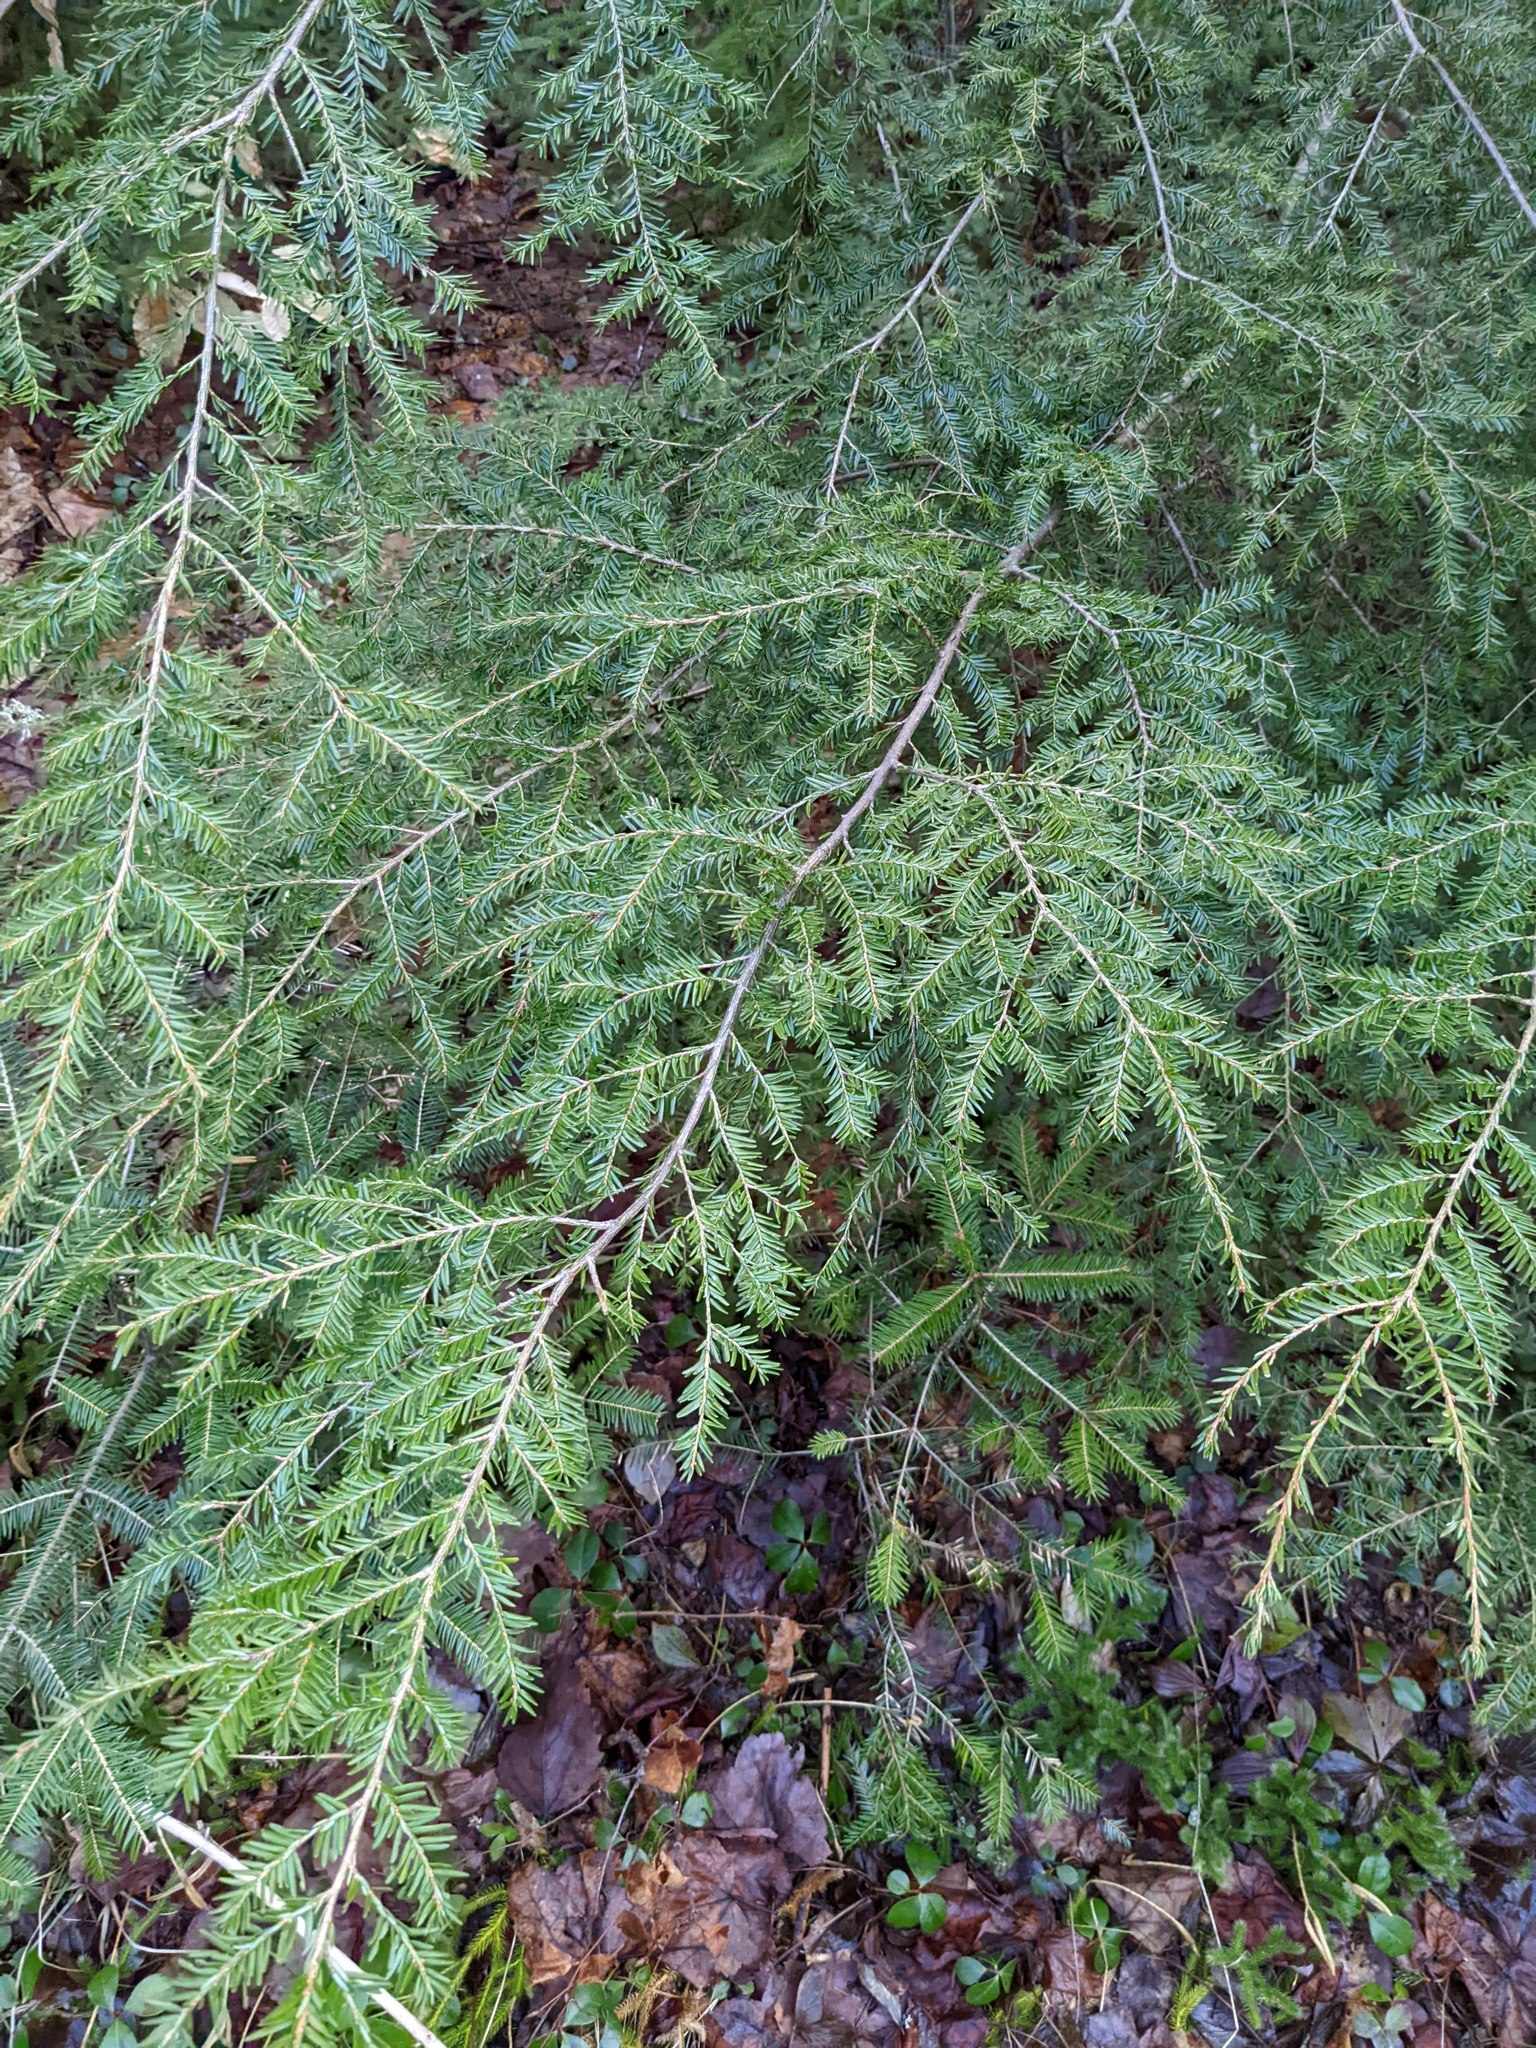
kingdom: Plantae
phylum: Tracheophyta
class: Pinopsida
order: Pinales
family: Pinaceae
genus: Tsuga
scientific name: Tsuga canadensis
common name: Eastern hemlock
